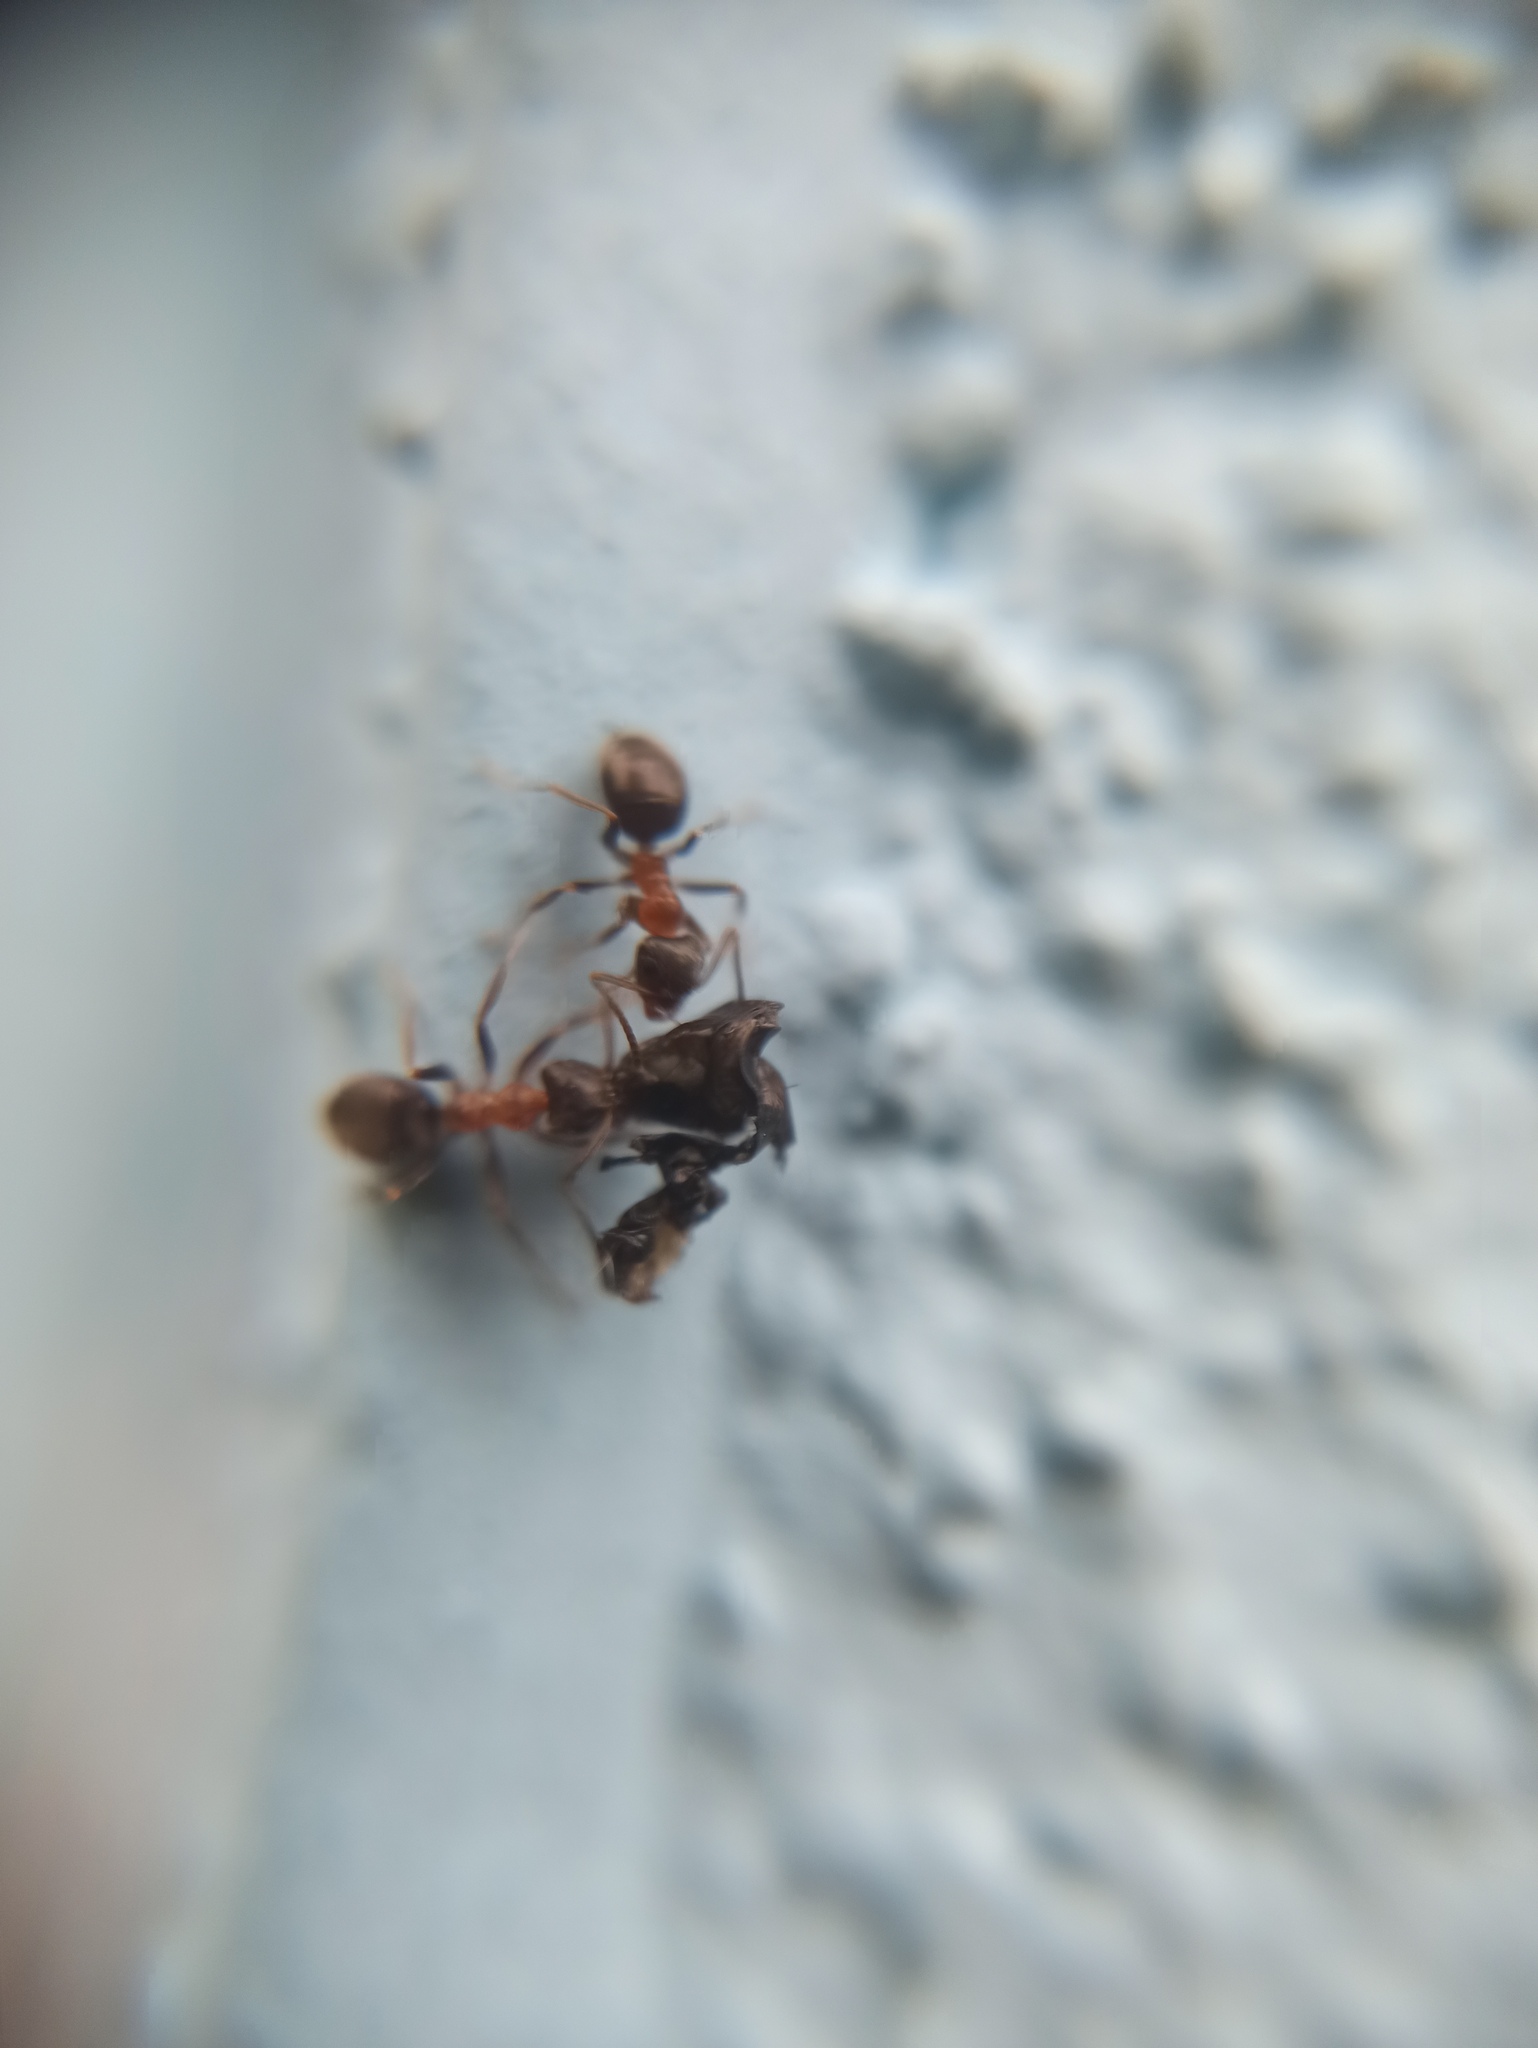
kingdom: Animalia
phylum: Arthropoda
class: Insecta
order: Hymenoptera
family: Formicidae
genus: Lasius
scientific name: Lasius emarginatus
